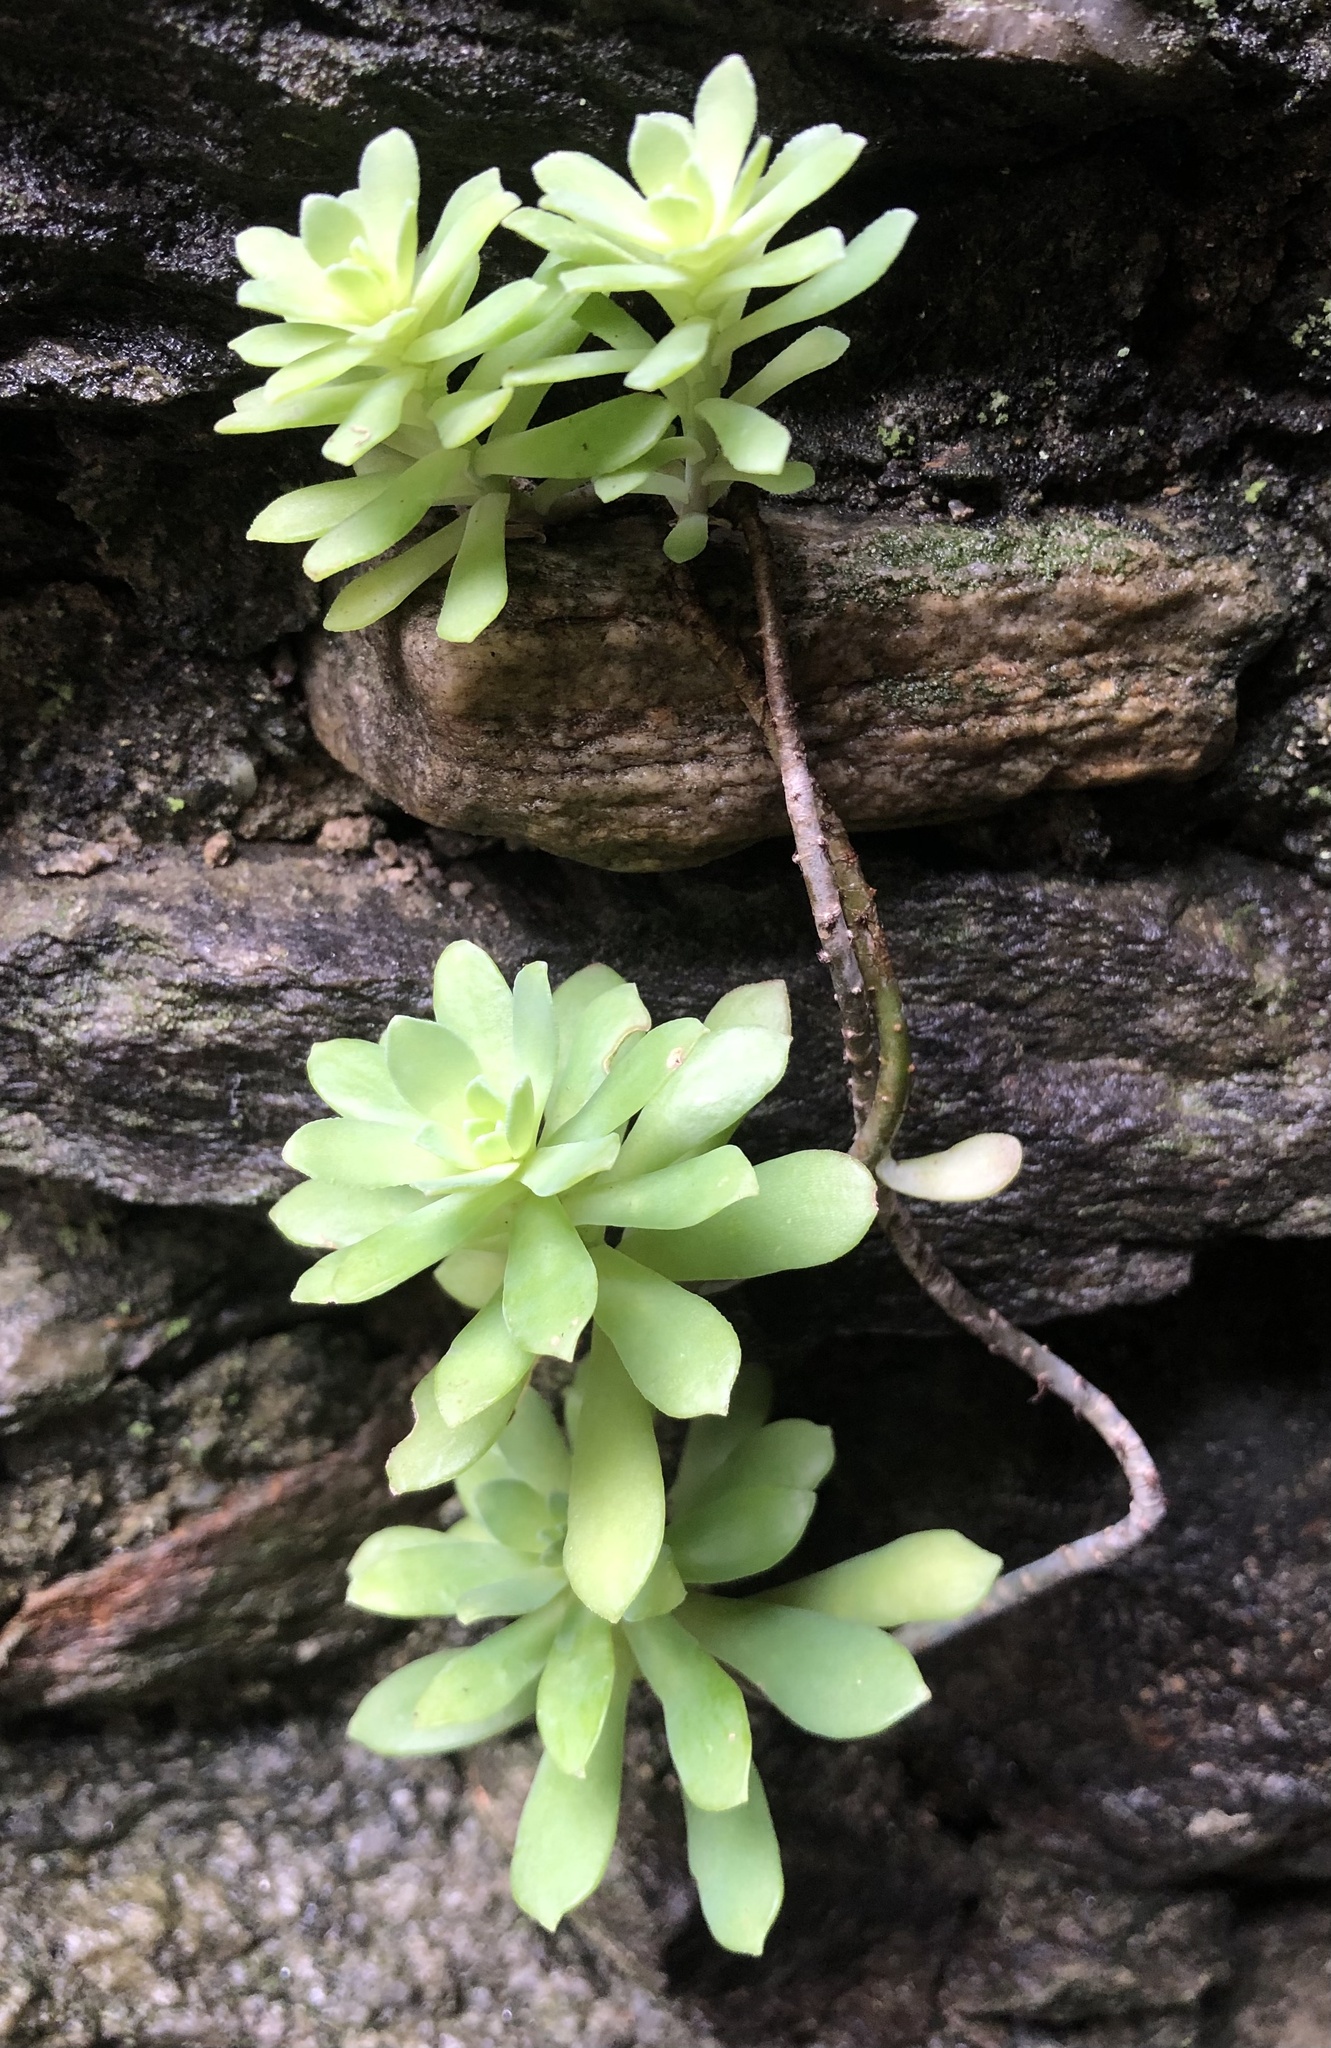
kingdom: Plantae
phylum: Tracheophyta
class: Magnoliopsida
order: Saxifragales
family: Crassulaceae
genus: Sedum
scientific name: Sedum palmeri
